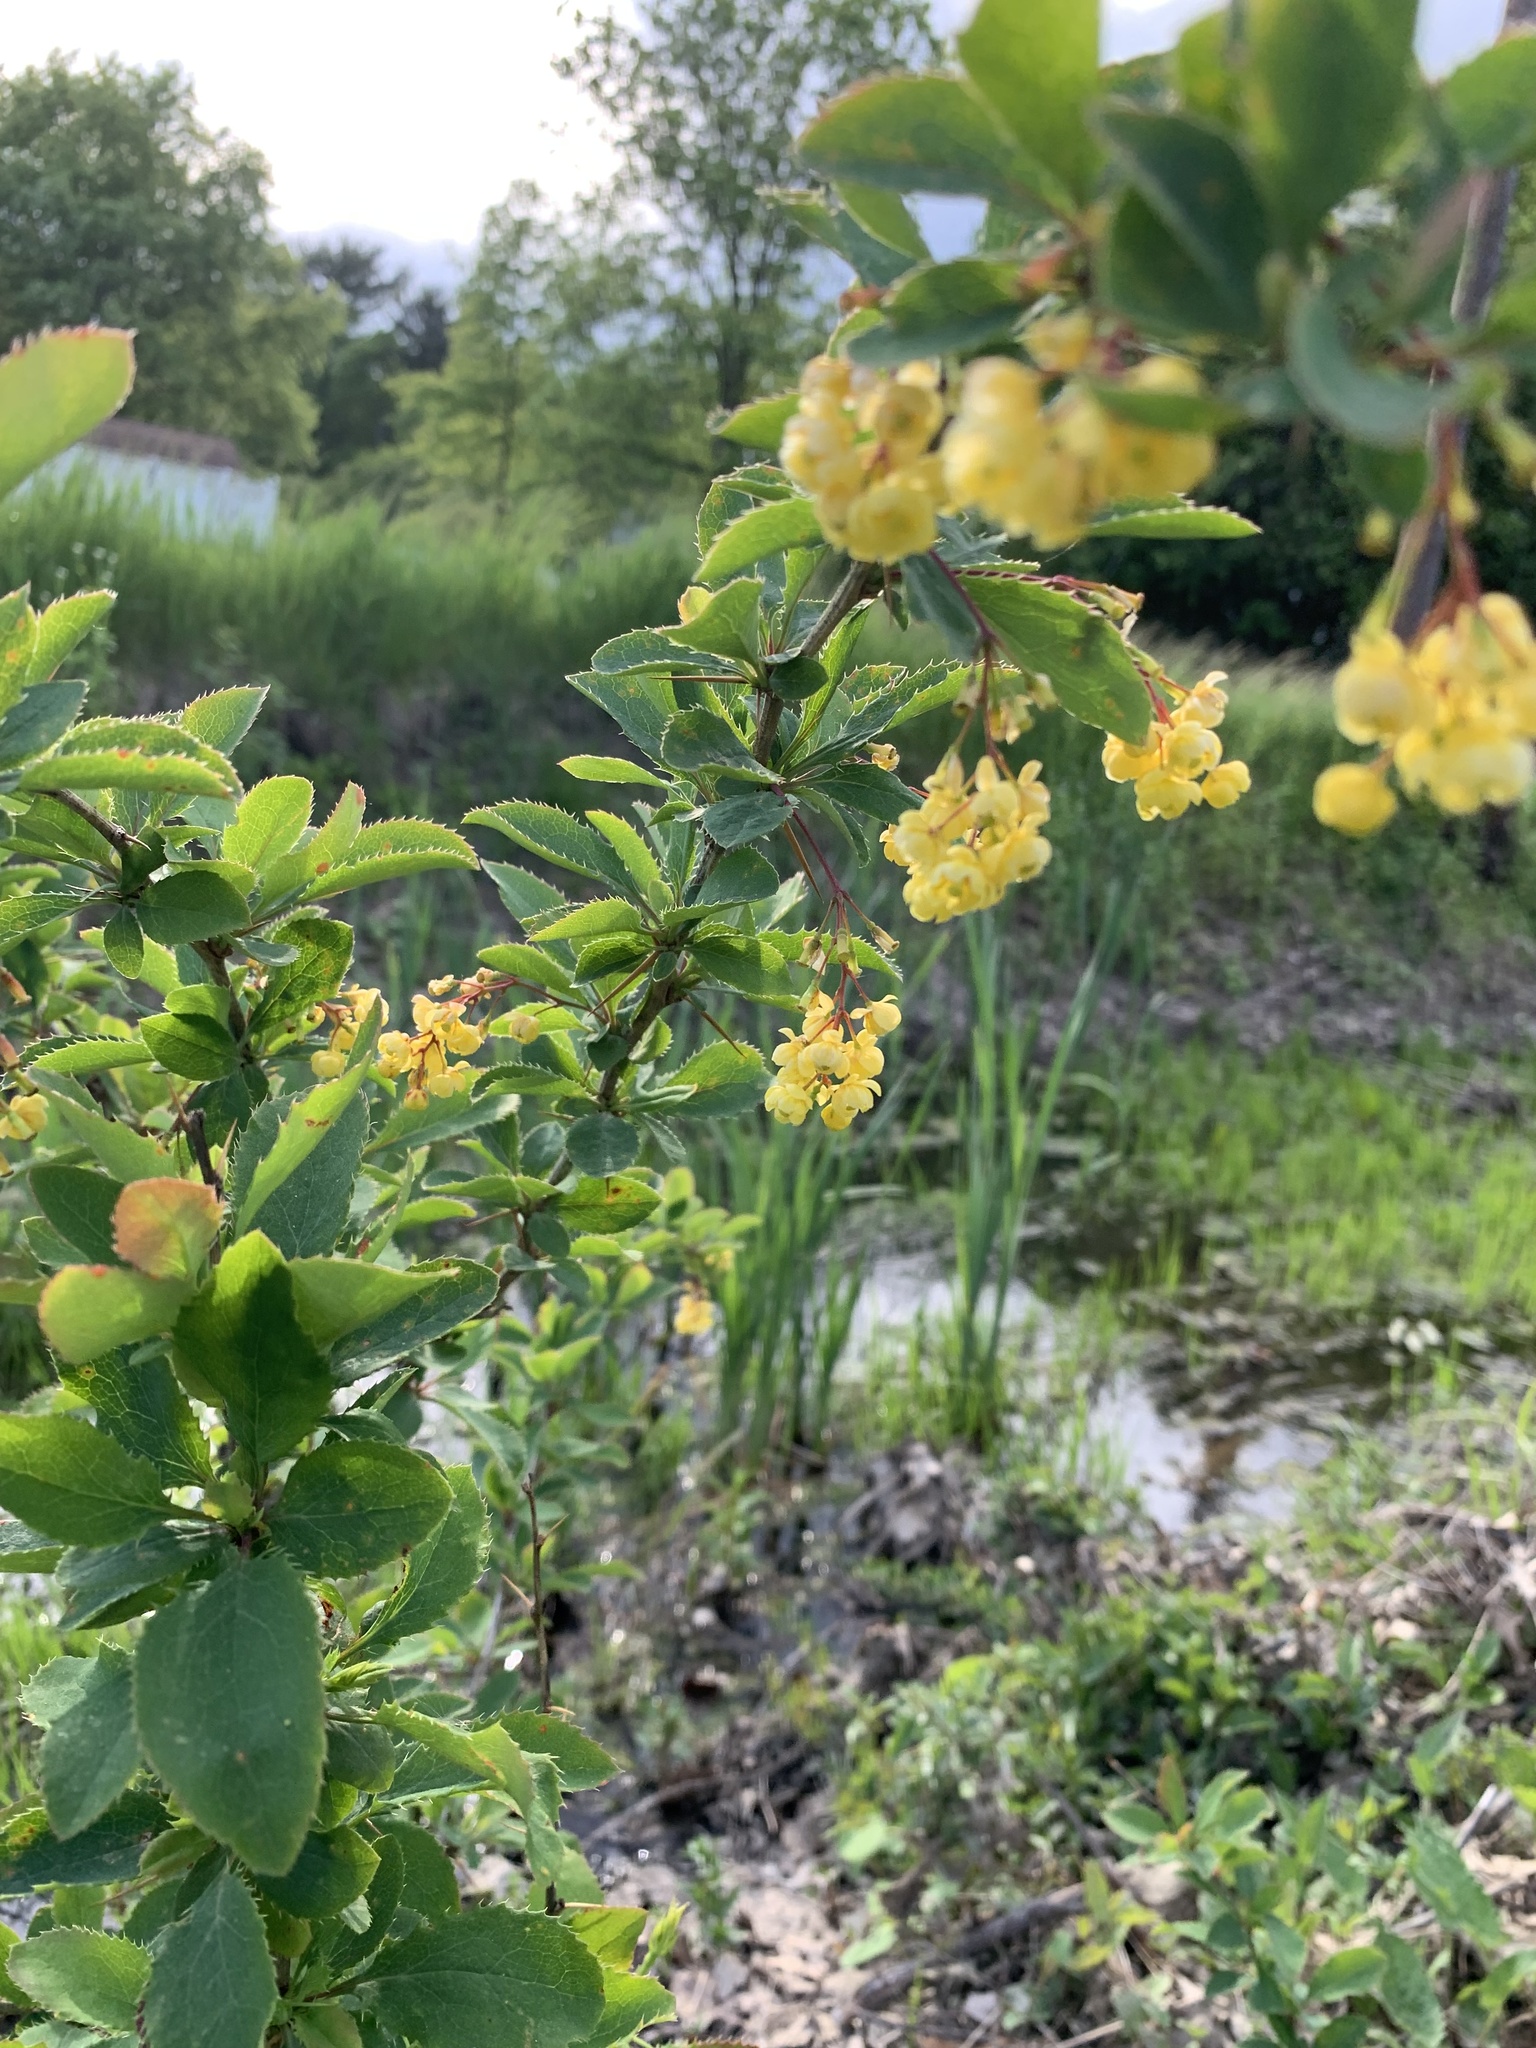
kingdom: Plantae
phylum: Tracheophyta
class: Magnoliopsida
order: Ranunculales
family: Berberidaceae
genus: Berberis
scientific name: Berberis vulgaris
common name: Barberry
